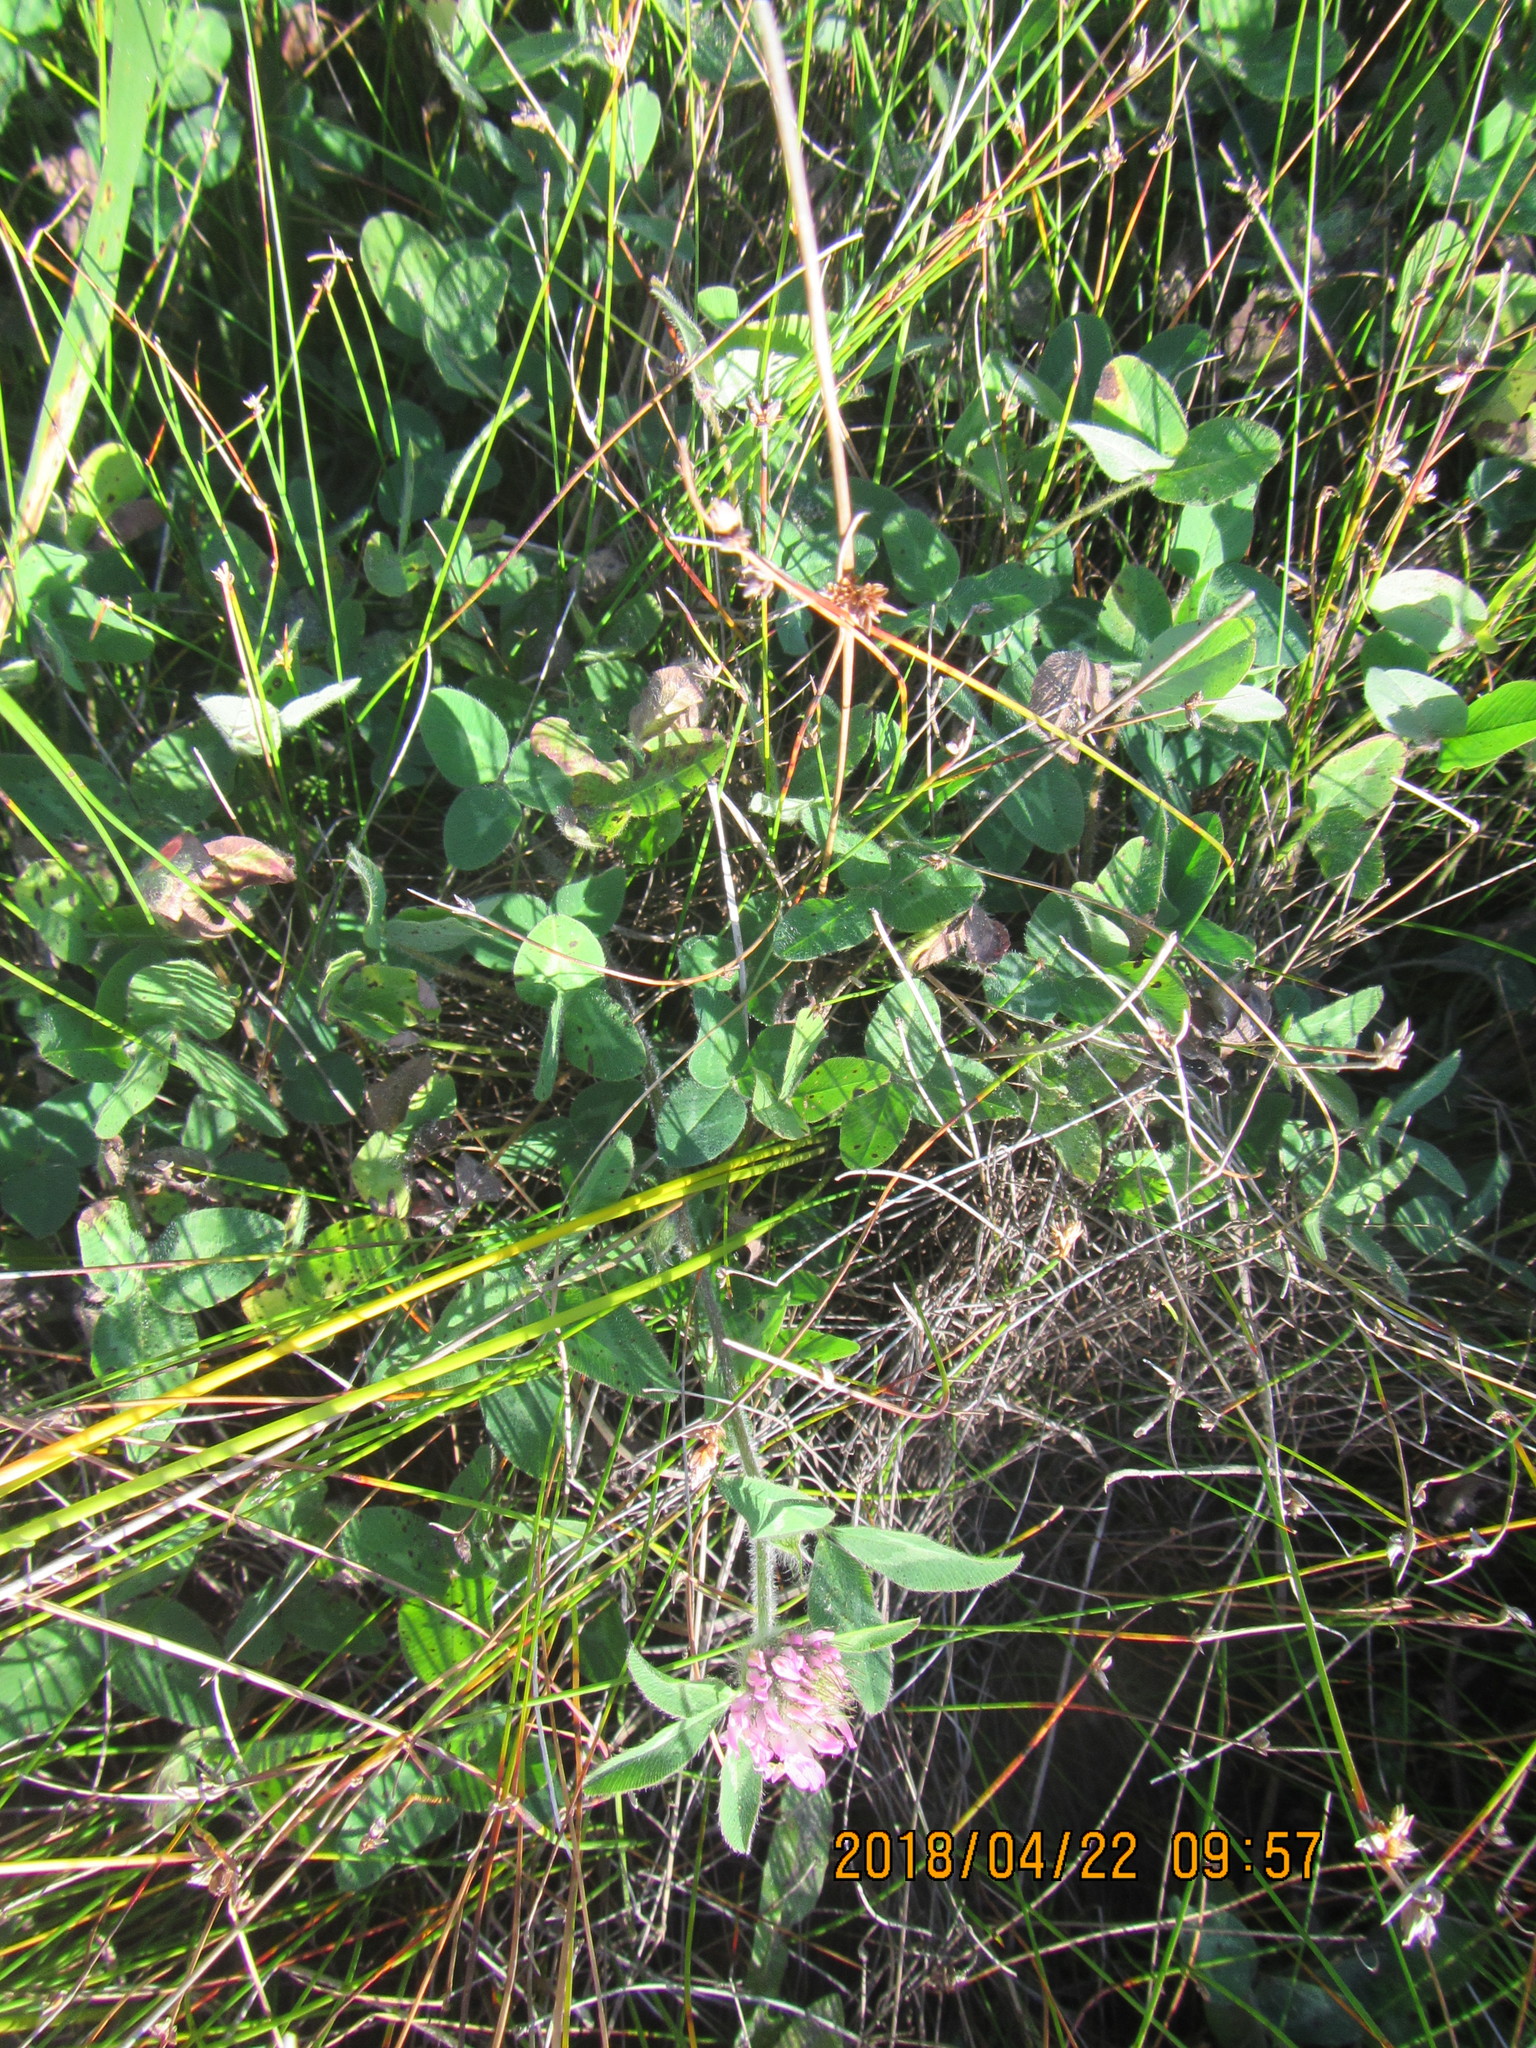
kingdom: Plantae
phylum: Tracheophyta
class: Magnoliopsida
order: Fabales
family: Fabaceae
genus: Trifolium
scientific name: Trifolium pratense
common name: Red clover
